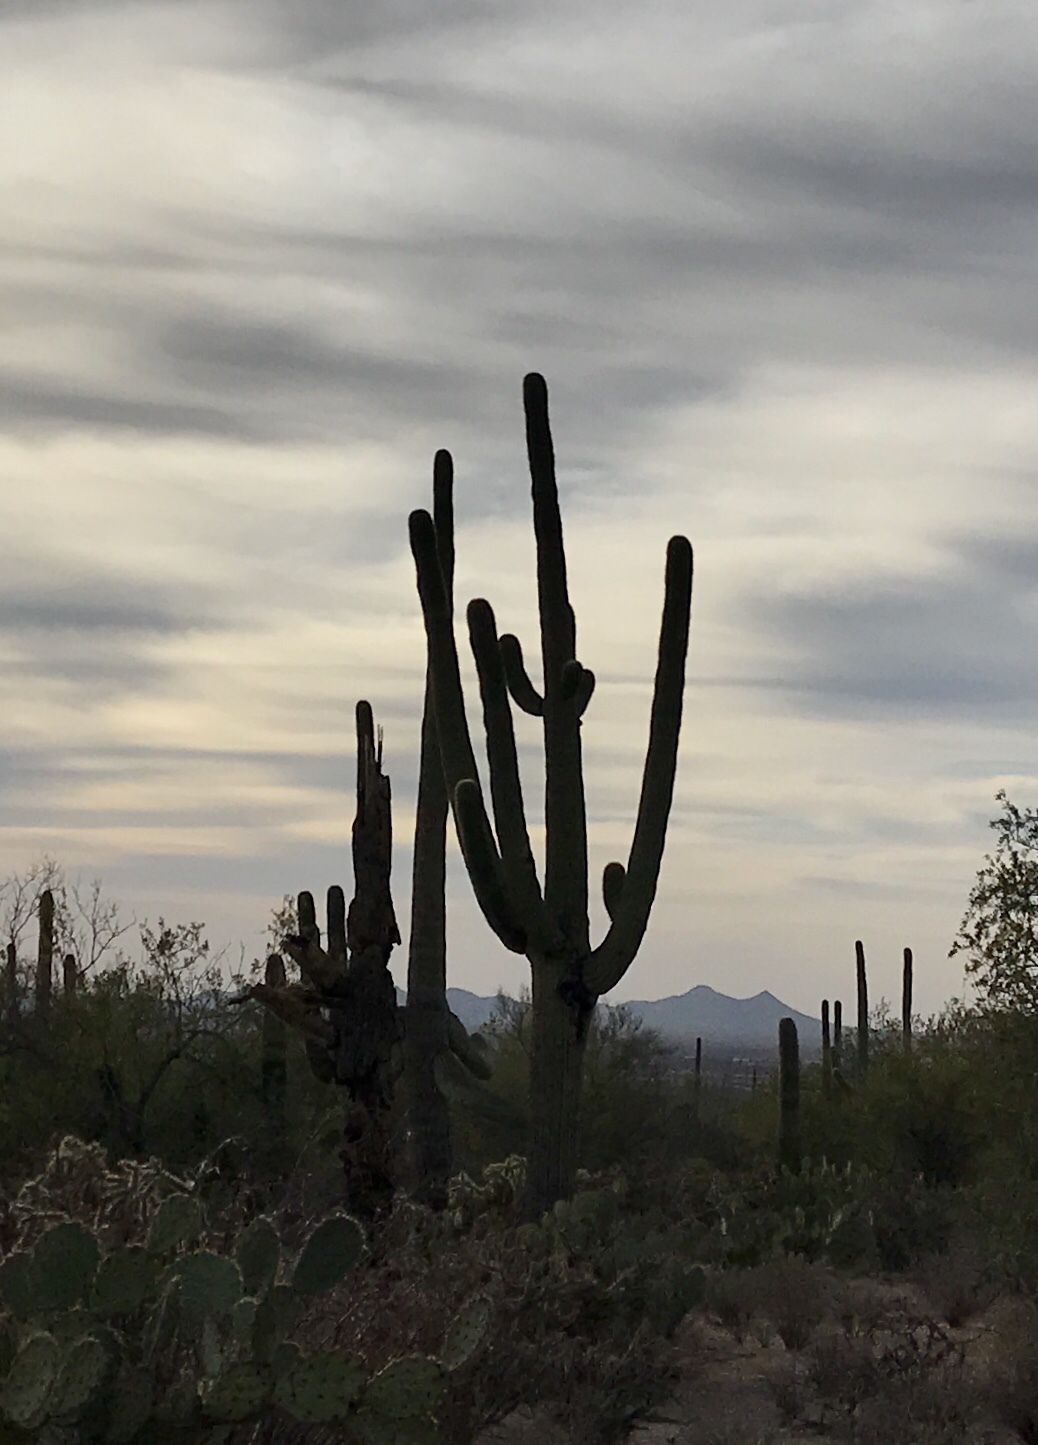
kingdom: Plantae
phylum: Tracheophyta
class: Magnoliopsida
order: Caryophyllales
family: Cactaceae
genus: Carnegiea
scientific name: Carnegiea gigantea
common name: Saguaro
